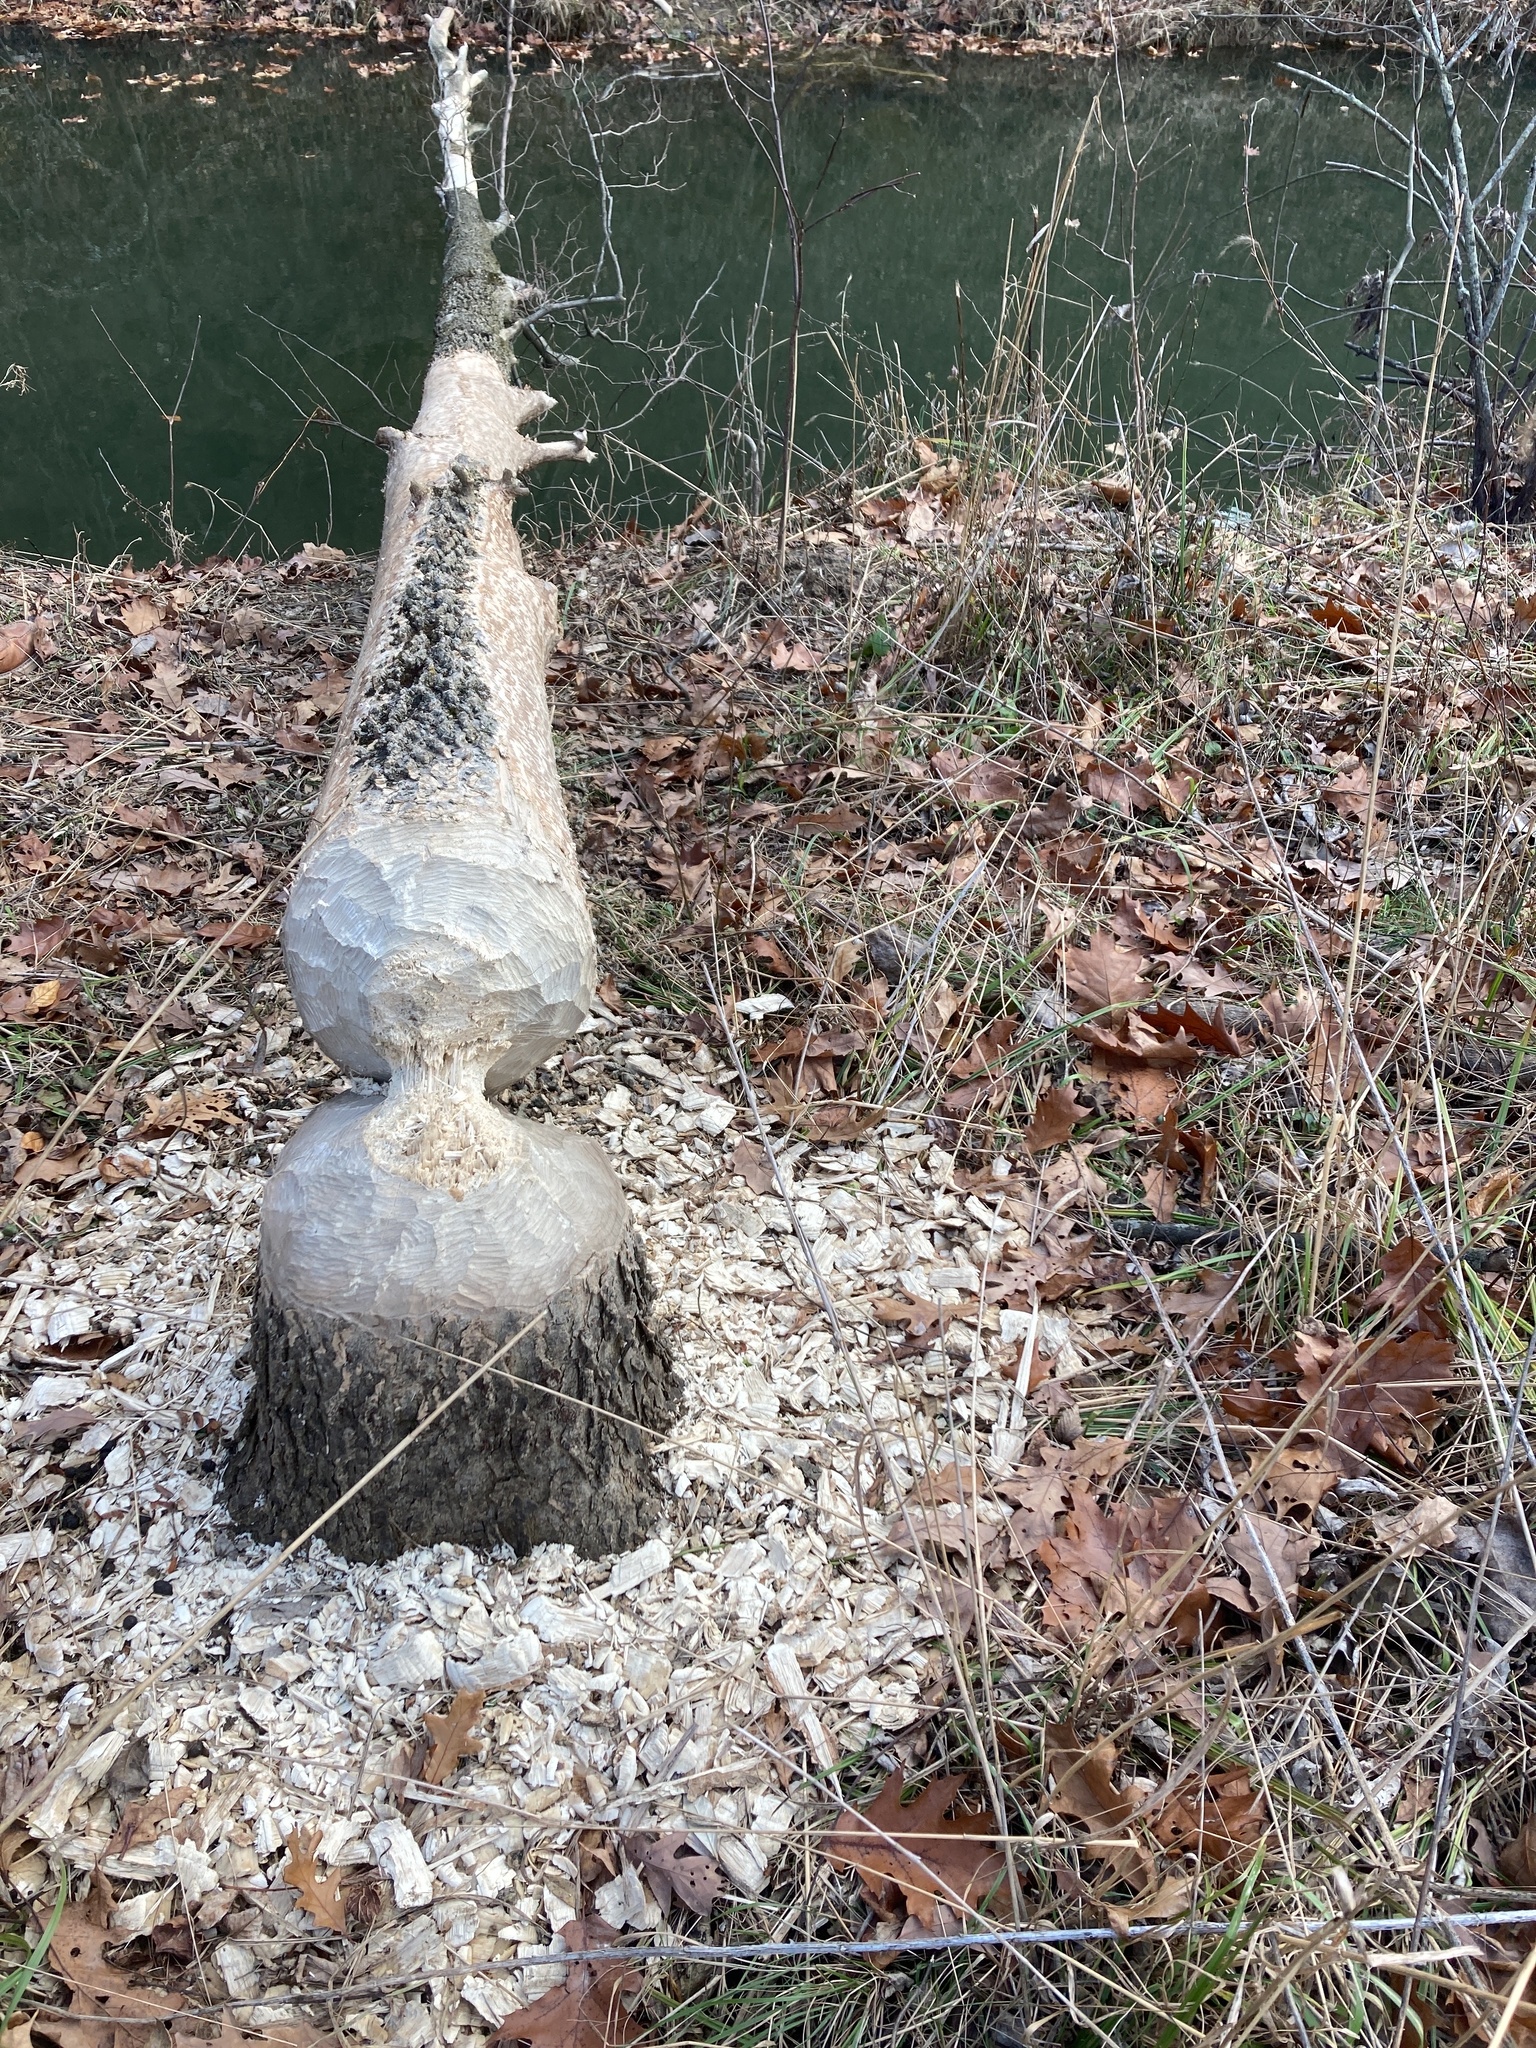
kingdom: Animalia
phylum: Chordata
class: Mammalia
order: Rodentia
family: Castoridae
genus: Castor
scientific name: Castor canadensis
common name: American beaver
